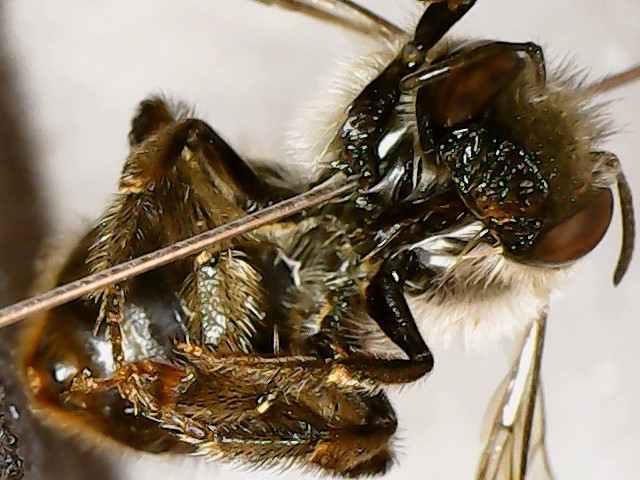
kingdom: Animalia
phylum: Arthropoda
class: Insecta
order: Hymenoptera
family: Apidae
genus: Anthophora
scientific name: Anthophora terminalis
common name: Orange-tipped wood-digger bee
